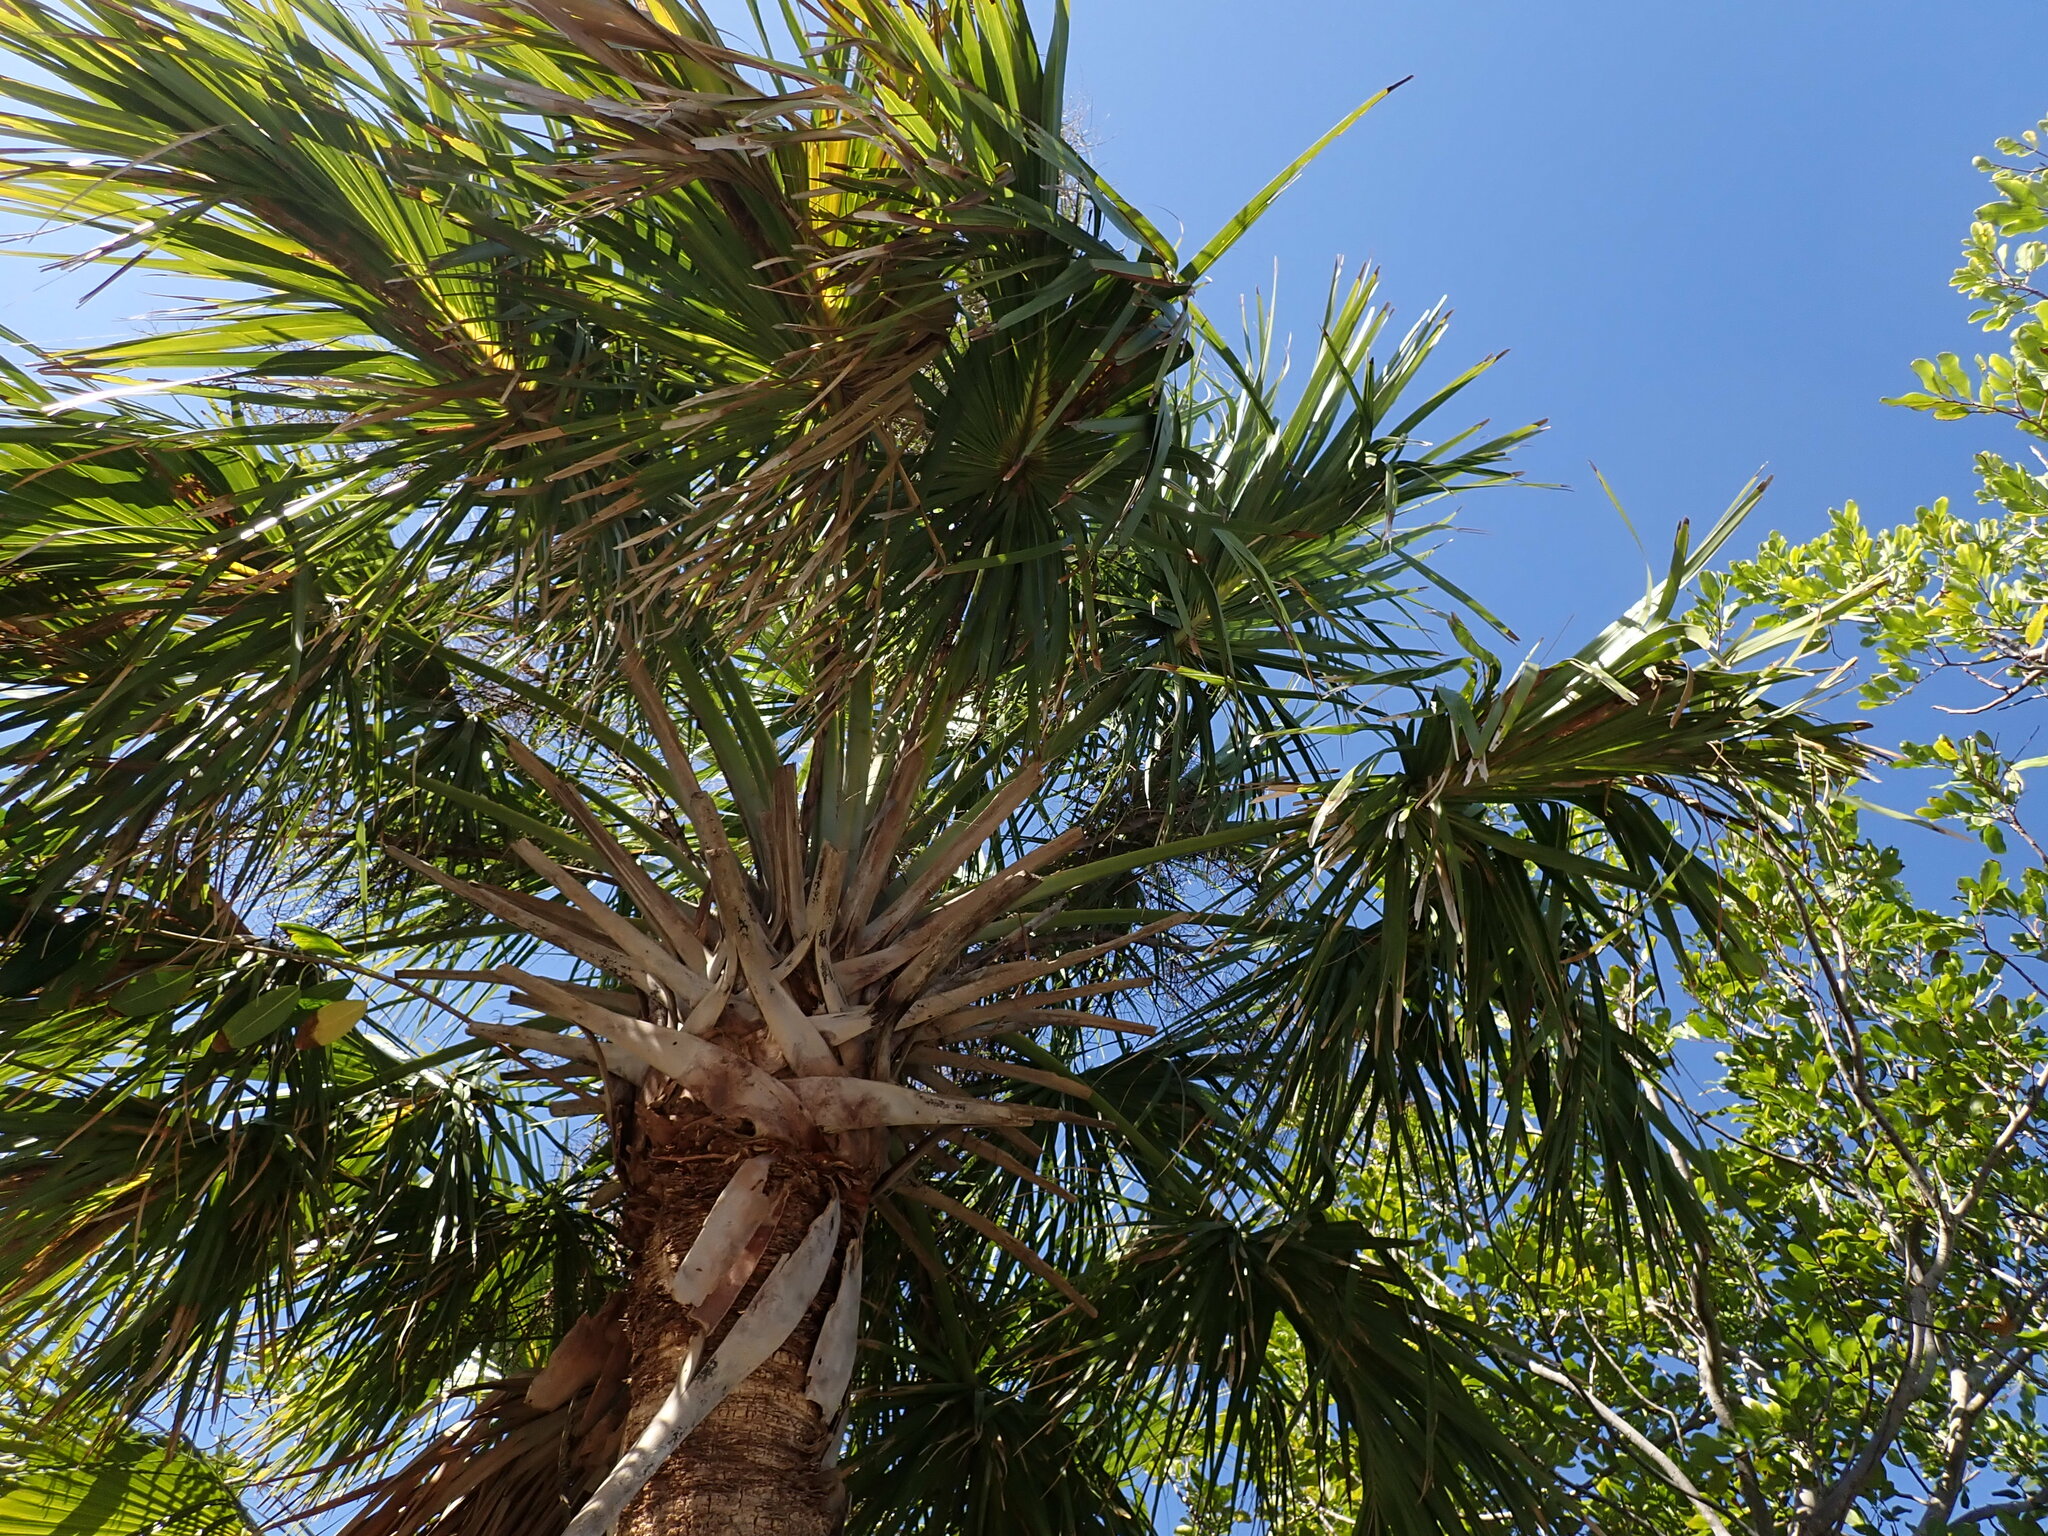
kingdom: Plantae
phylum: Tracheophyta
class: Liliopsida
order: Arecales
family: Arecaceae
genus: Sabal
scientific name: Sabal palmetto
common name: Blue palmetto
